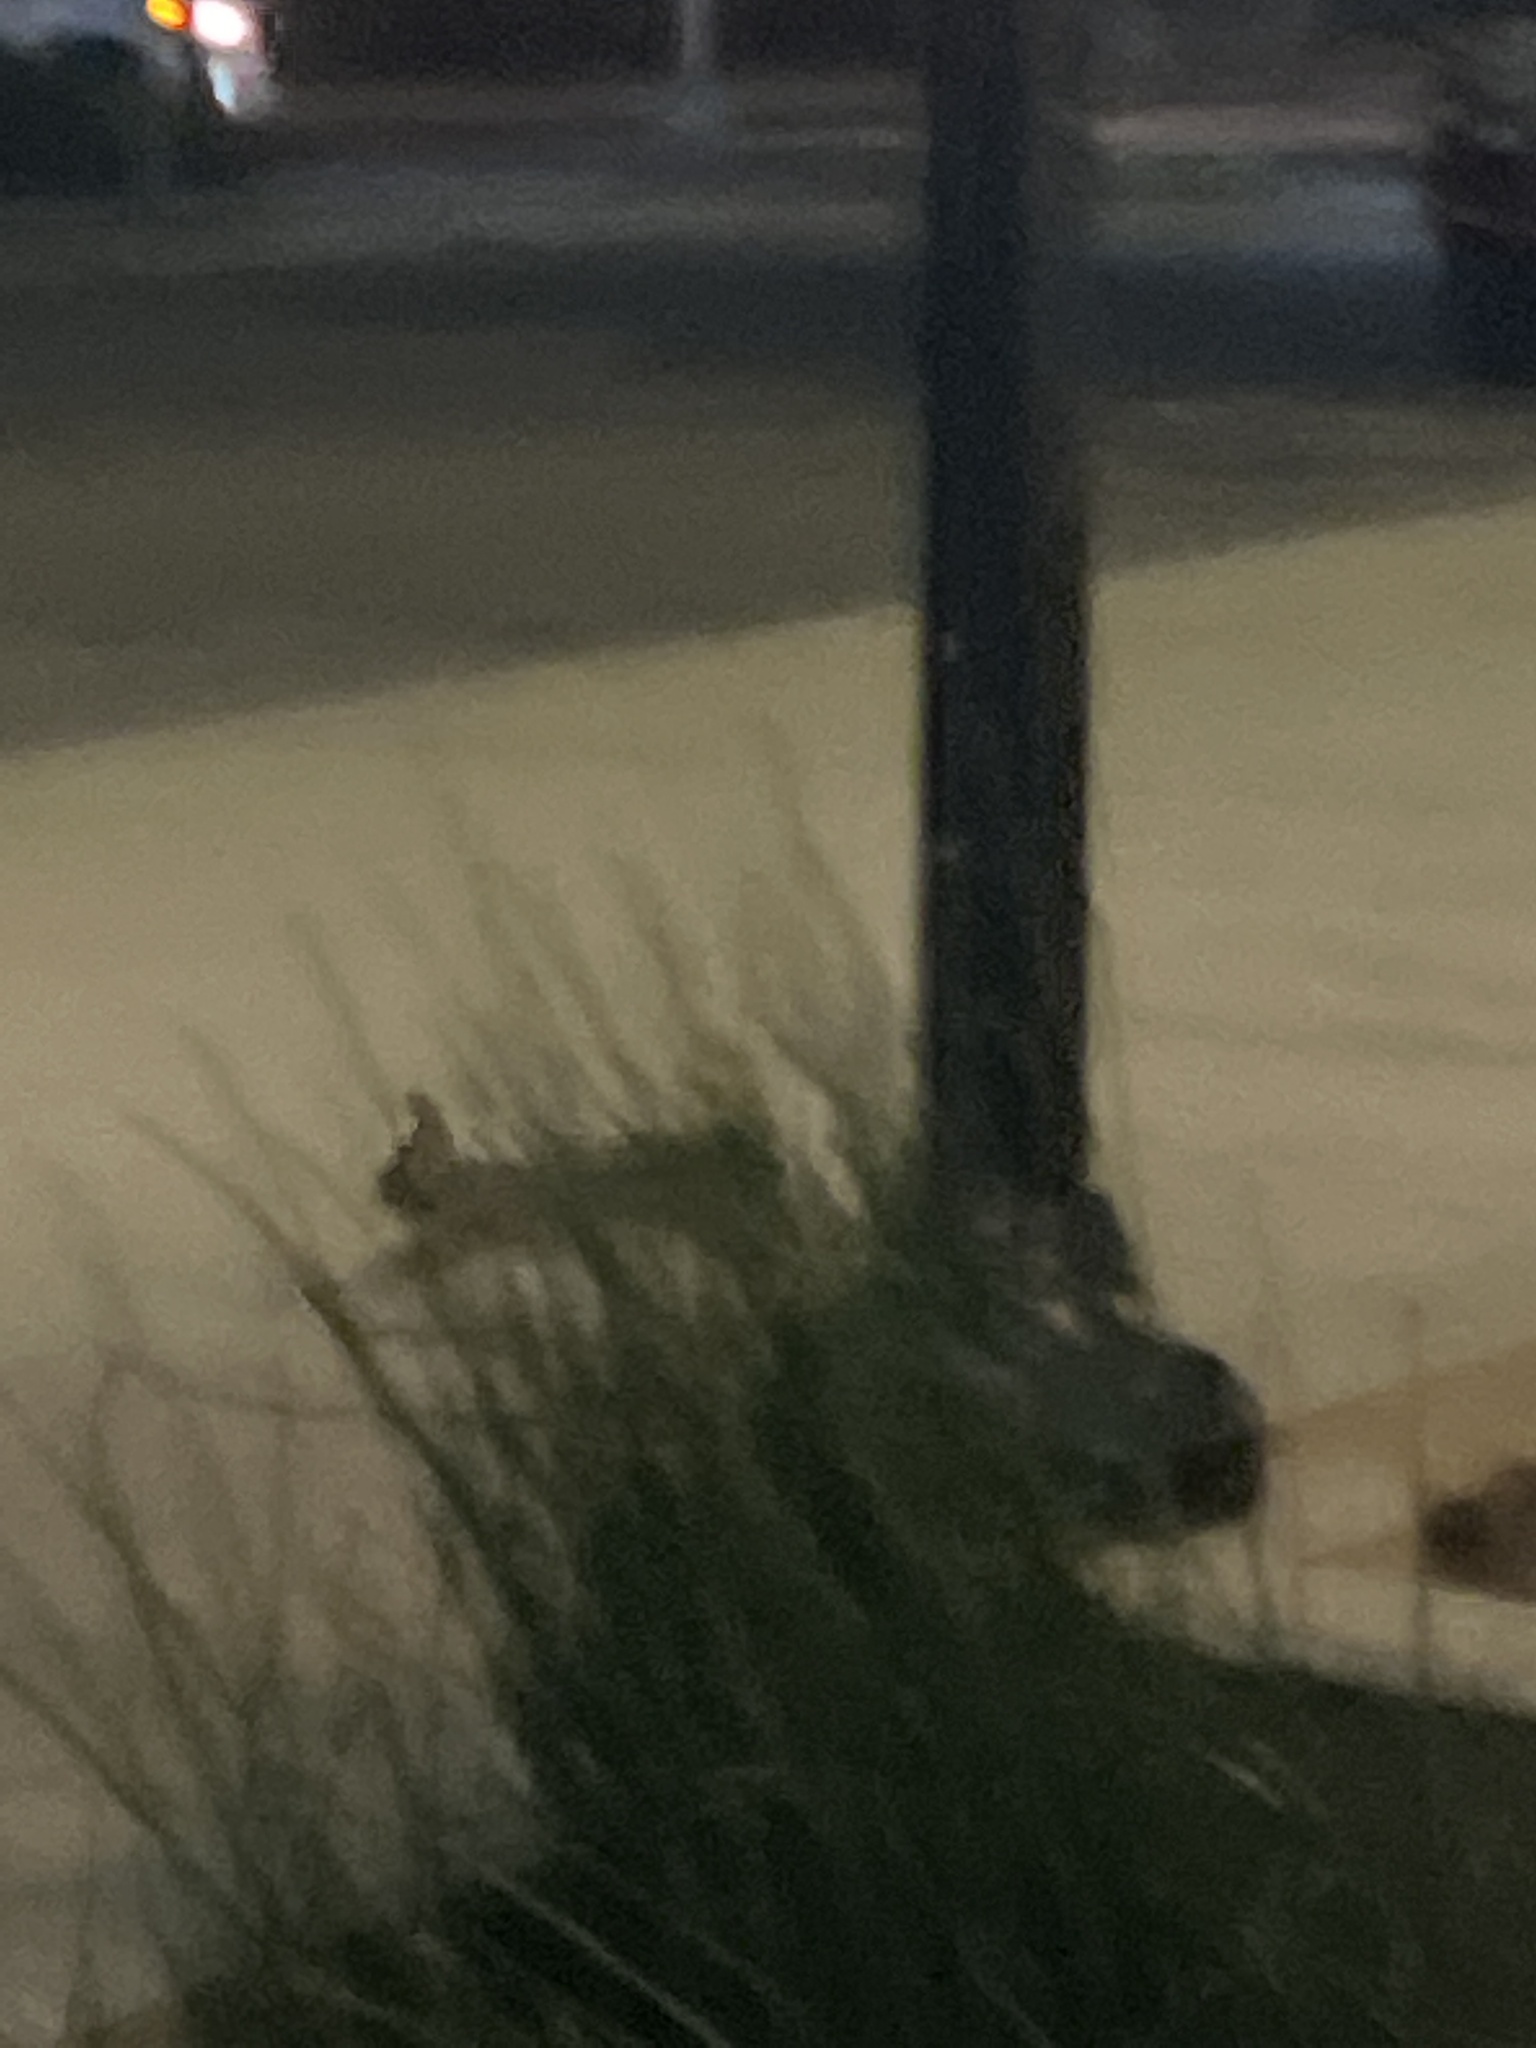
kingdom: Animalia
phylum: Chordata
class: Mammalia
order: Lagomorpha
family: Leporidae
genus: Sylvilagus
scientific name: Sylvilagus floridanus
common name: Eastern cottontail
